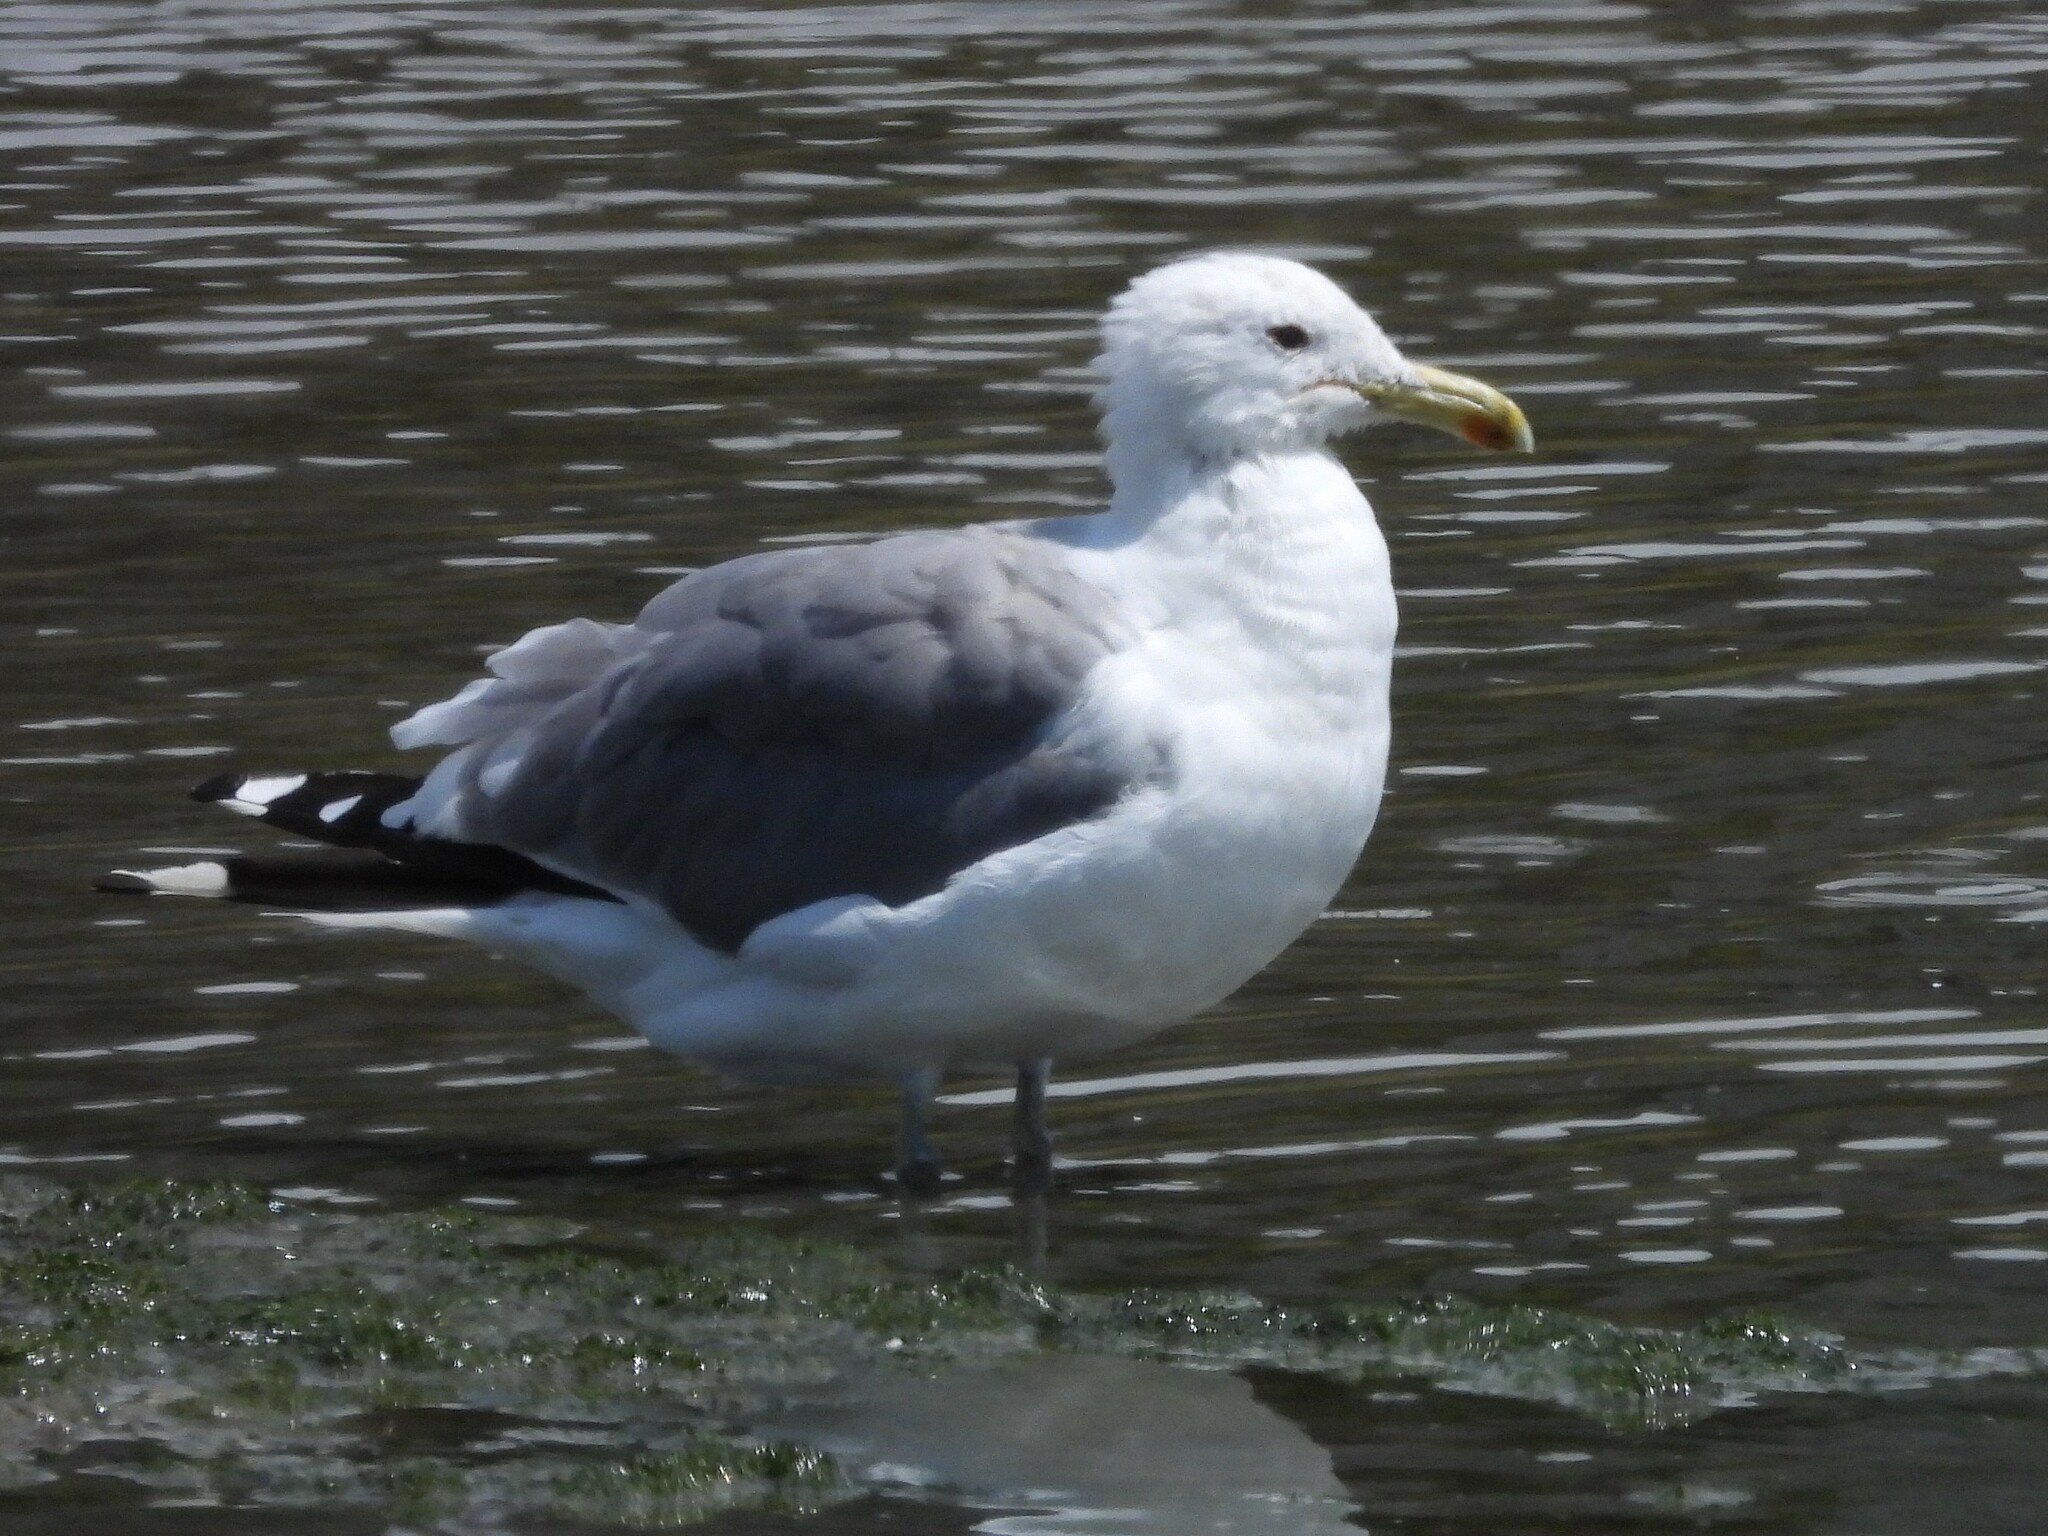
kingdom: Animalia
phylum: Chordata
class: Aves
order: Charadriiformes
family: Laridae
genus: Larus
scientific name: Larus californicus
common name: California gull
